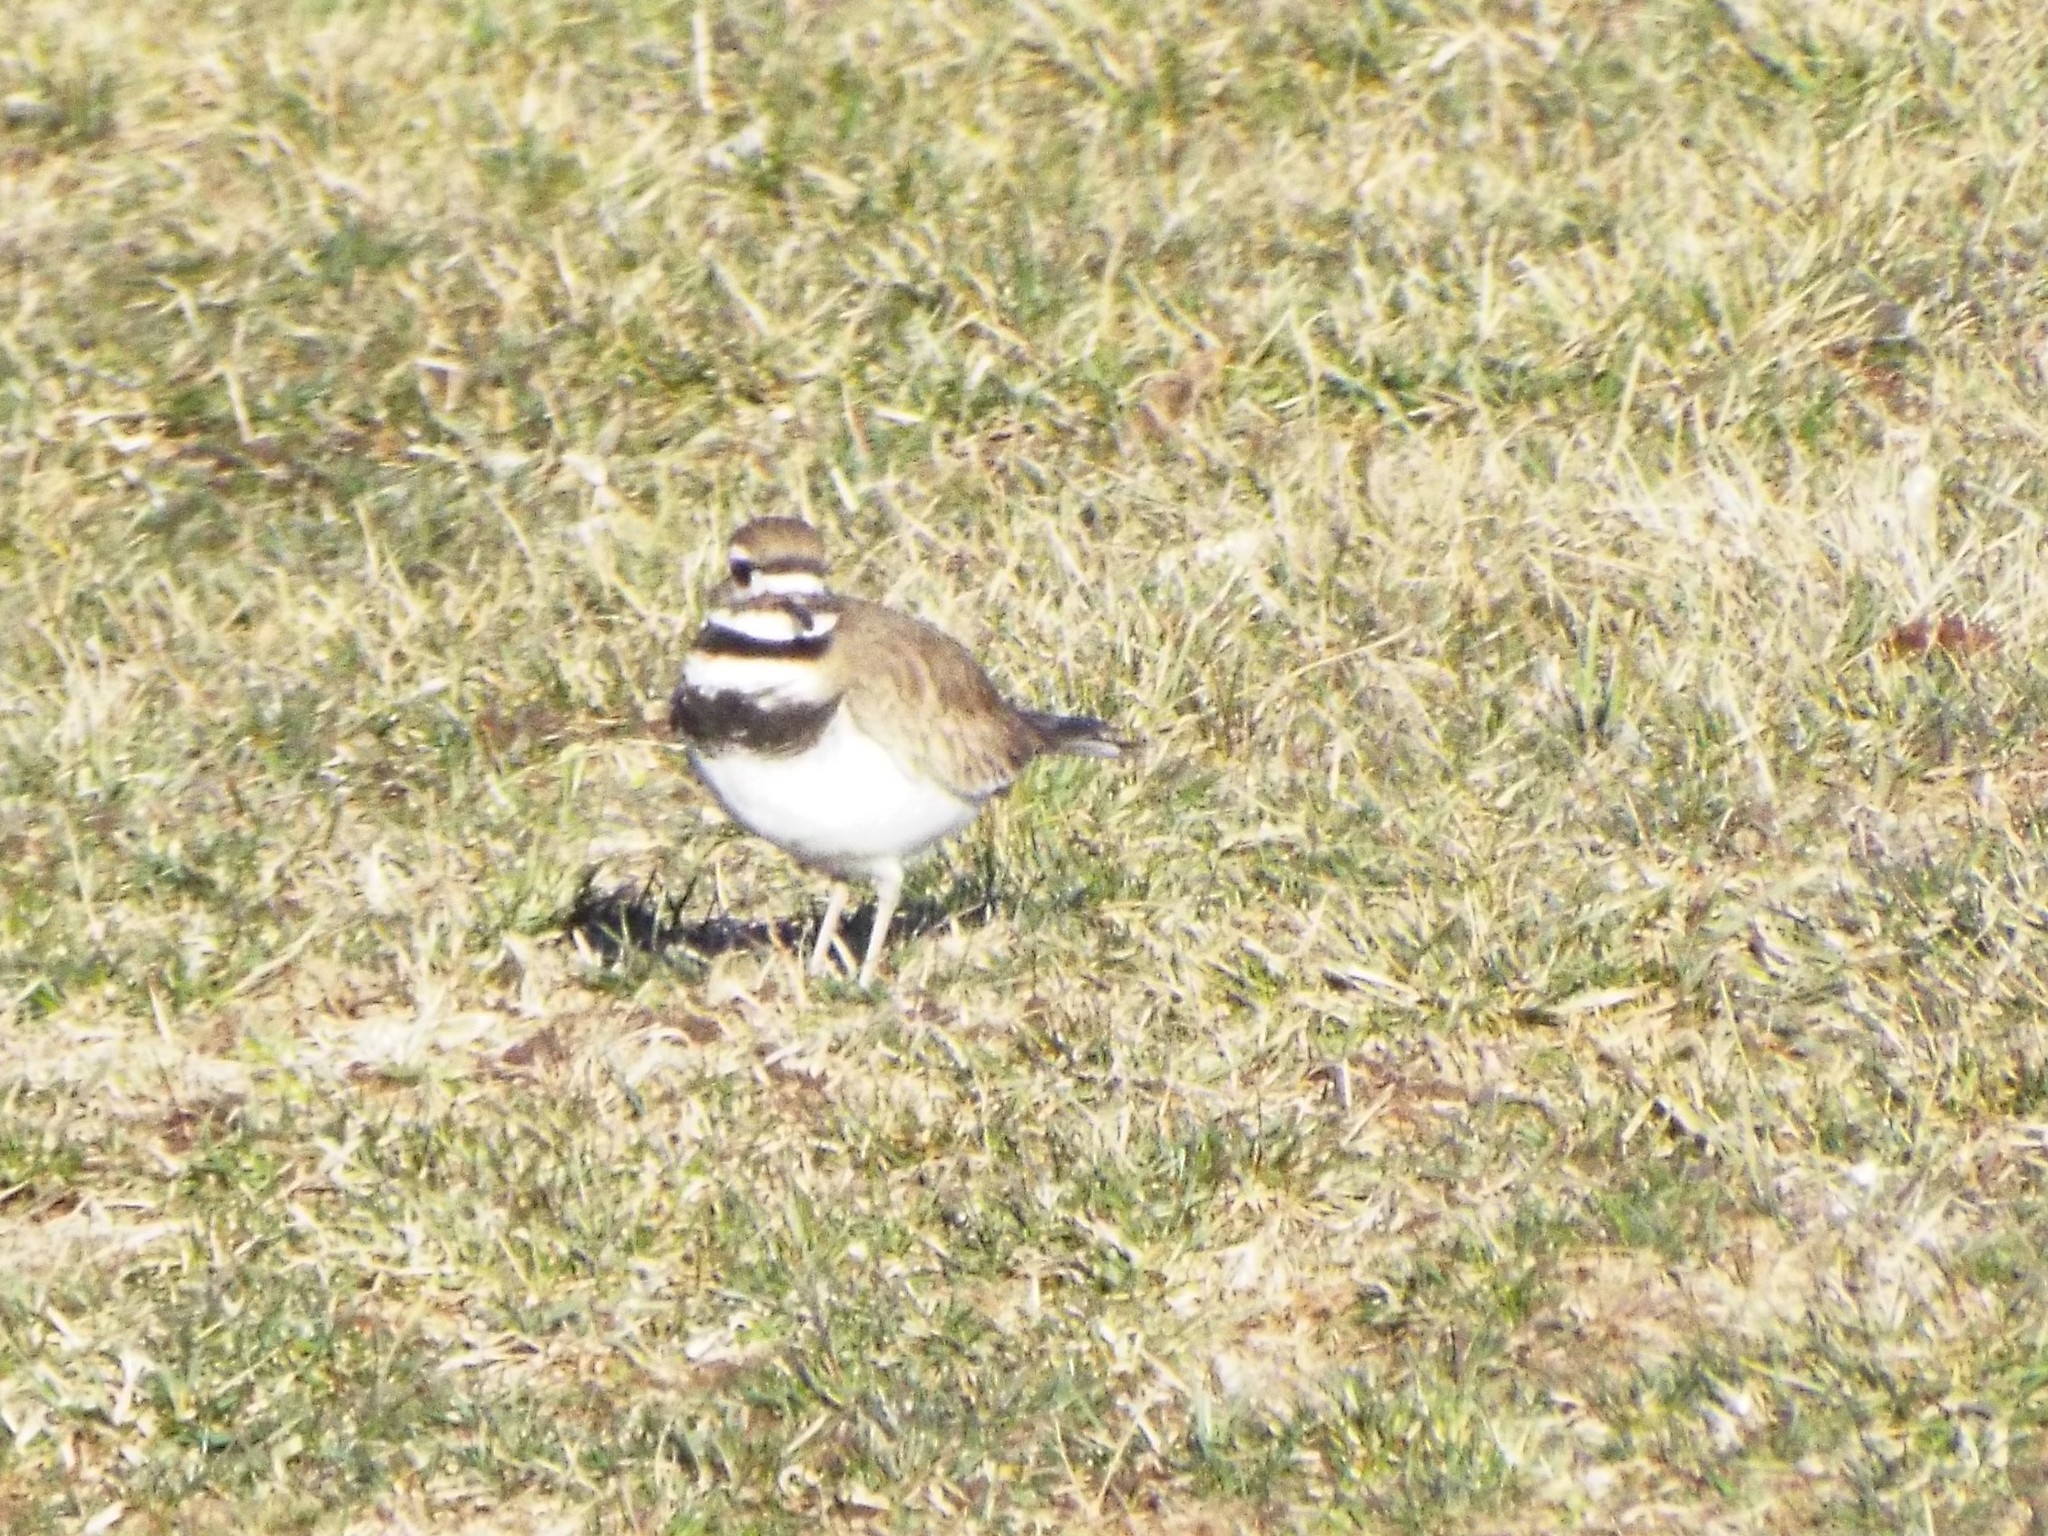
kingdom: Animalia
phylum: Chordata
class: Aves
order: Charadriiformes
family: Charadriidae
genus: Charadrius
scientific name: Charadrius vociferus
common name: Killdeer
